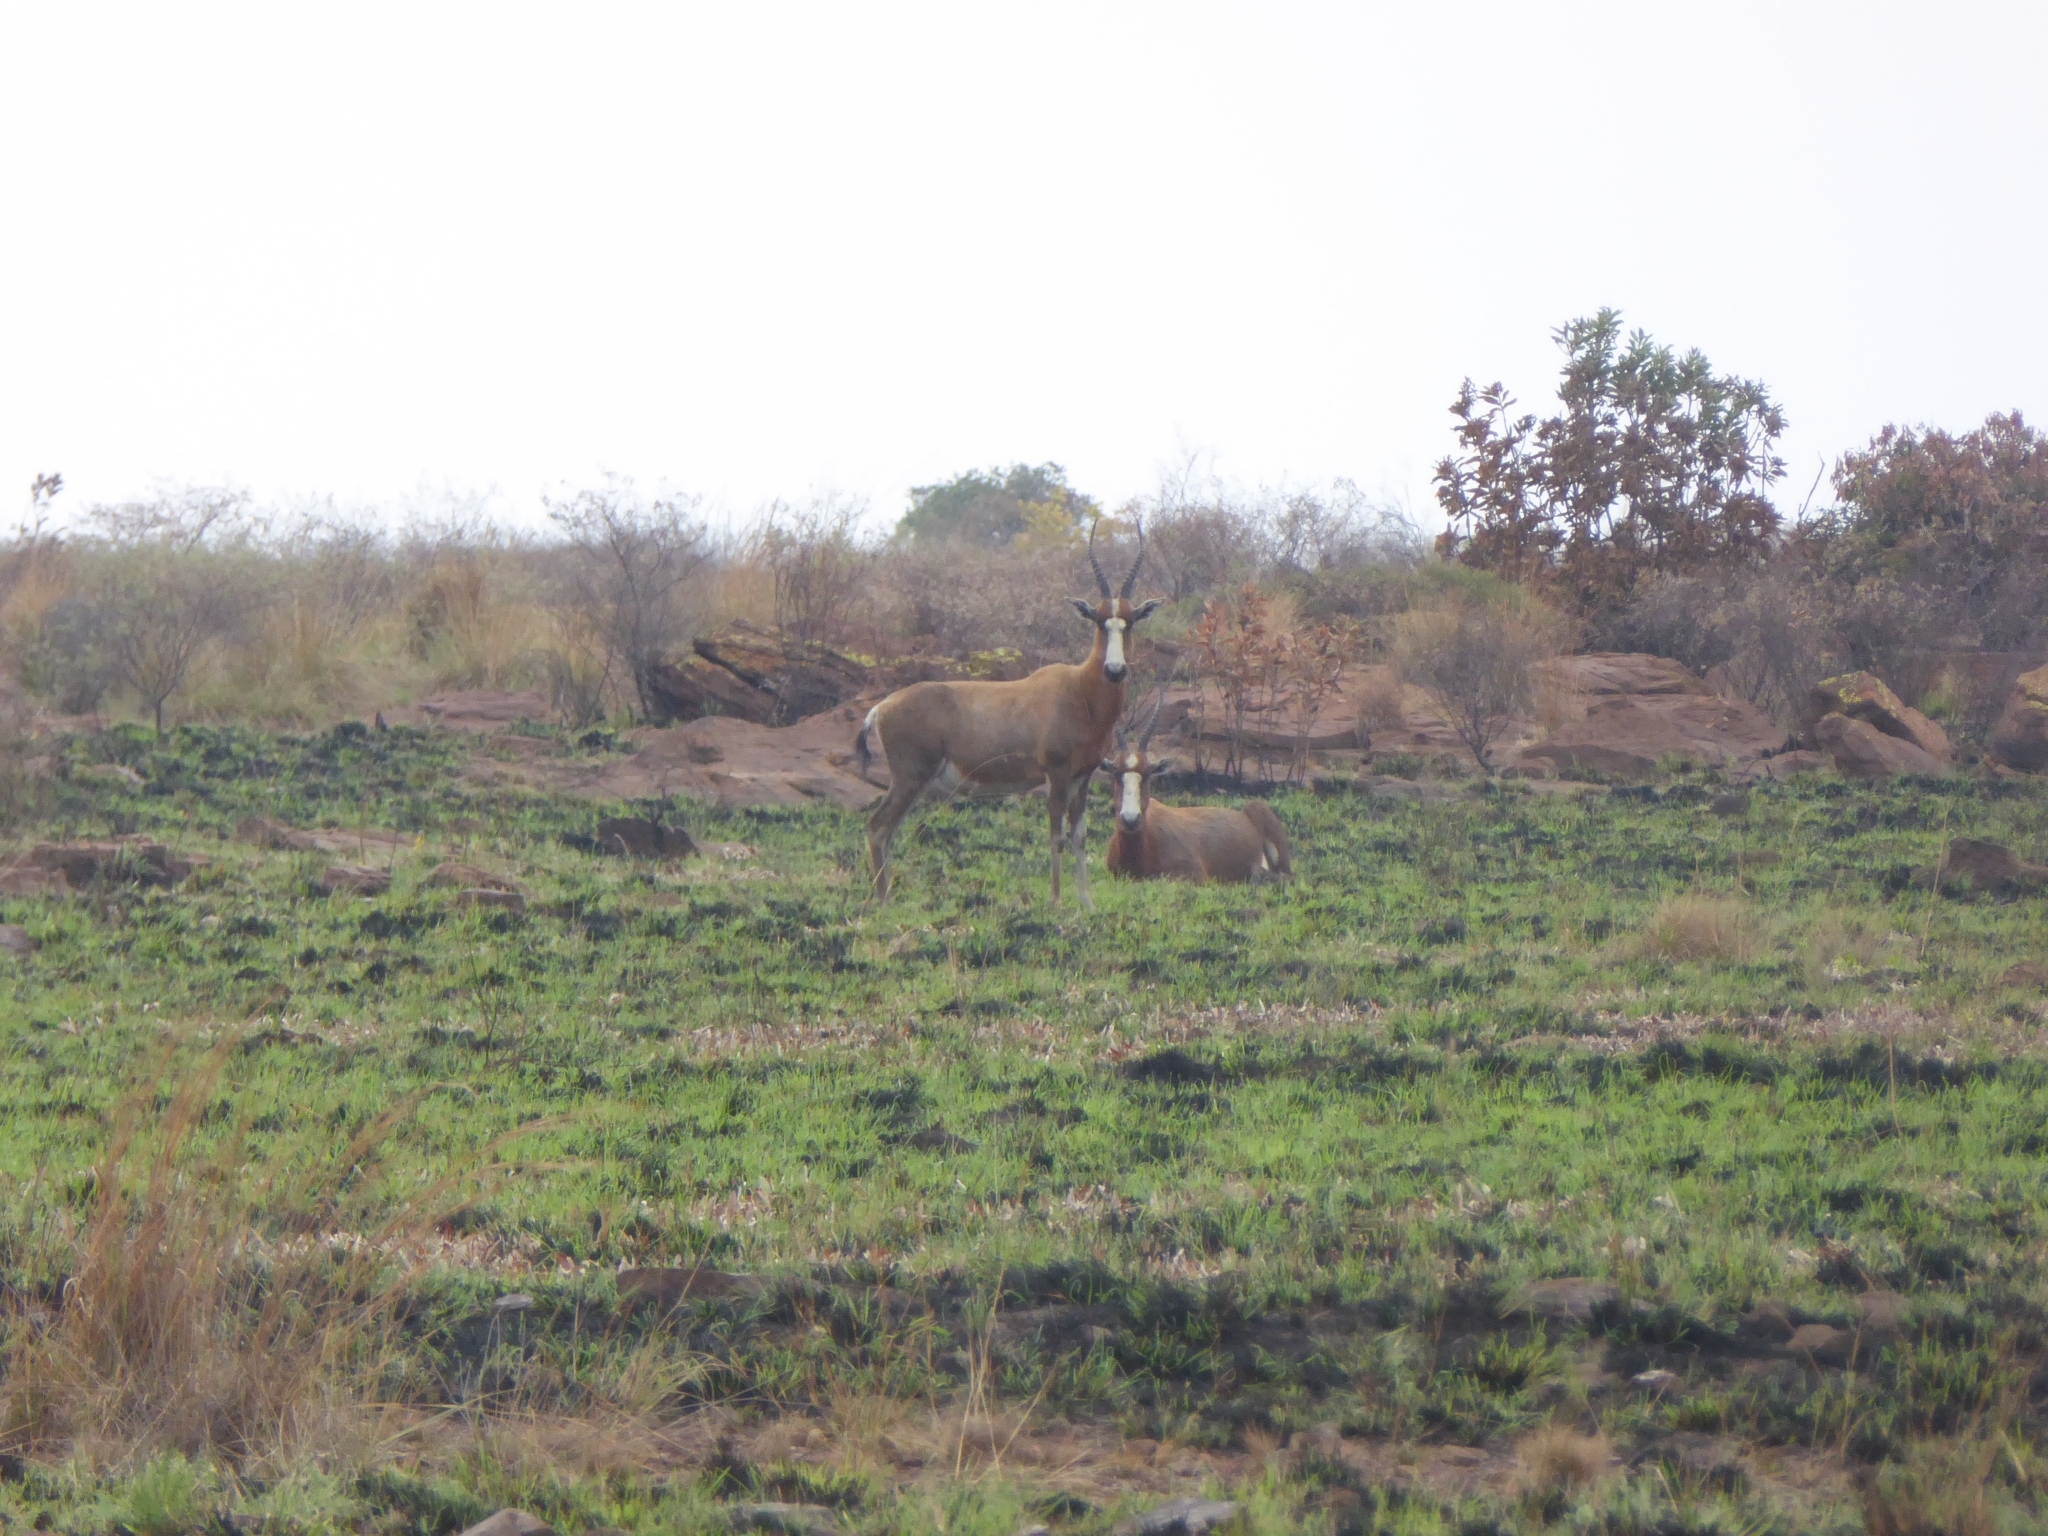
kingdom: Animalia
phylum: Chordata
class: Mammalia
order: Artiodactyla
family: Bovidae
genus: Damaliscus
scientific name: Damaliscus pygargus
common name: Bontebok
